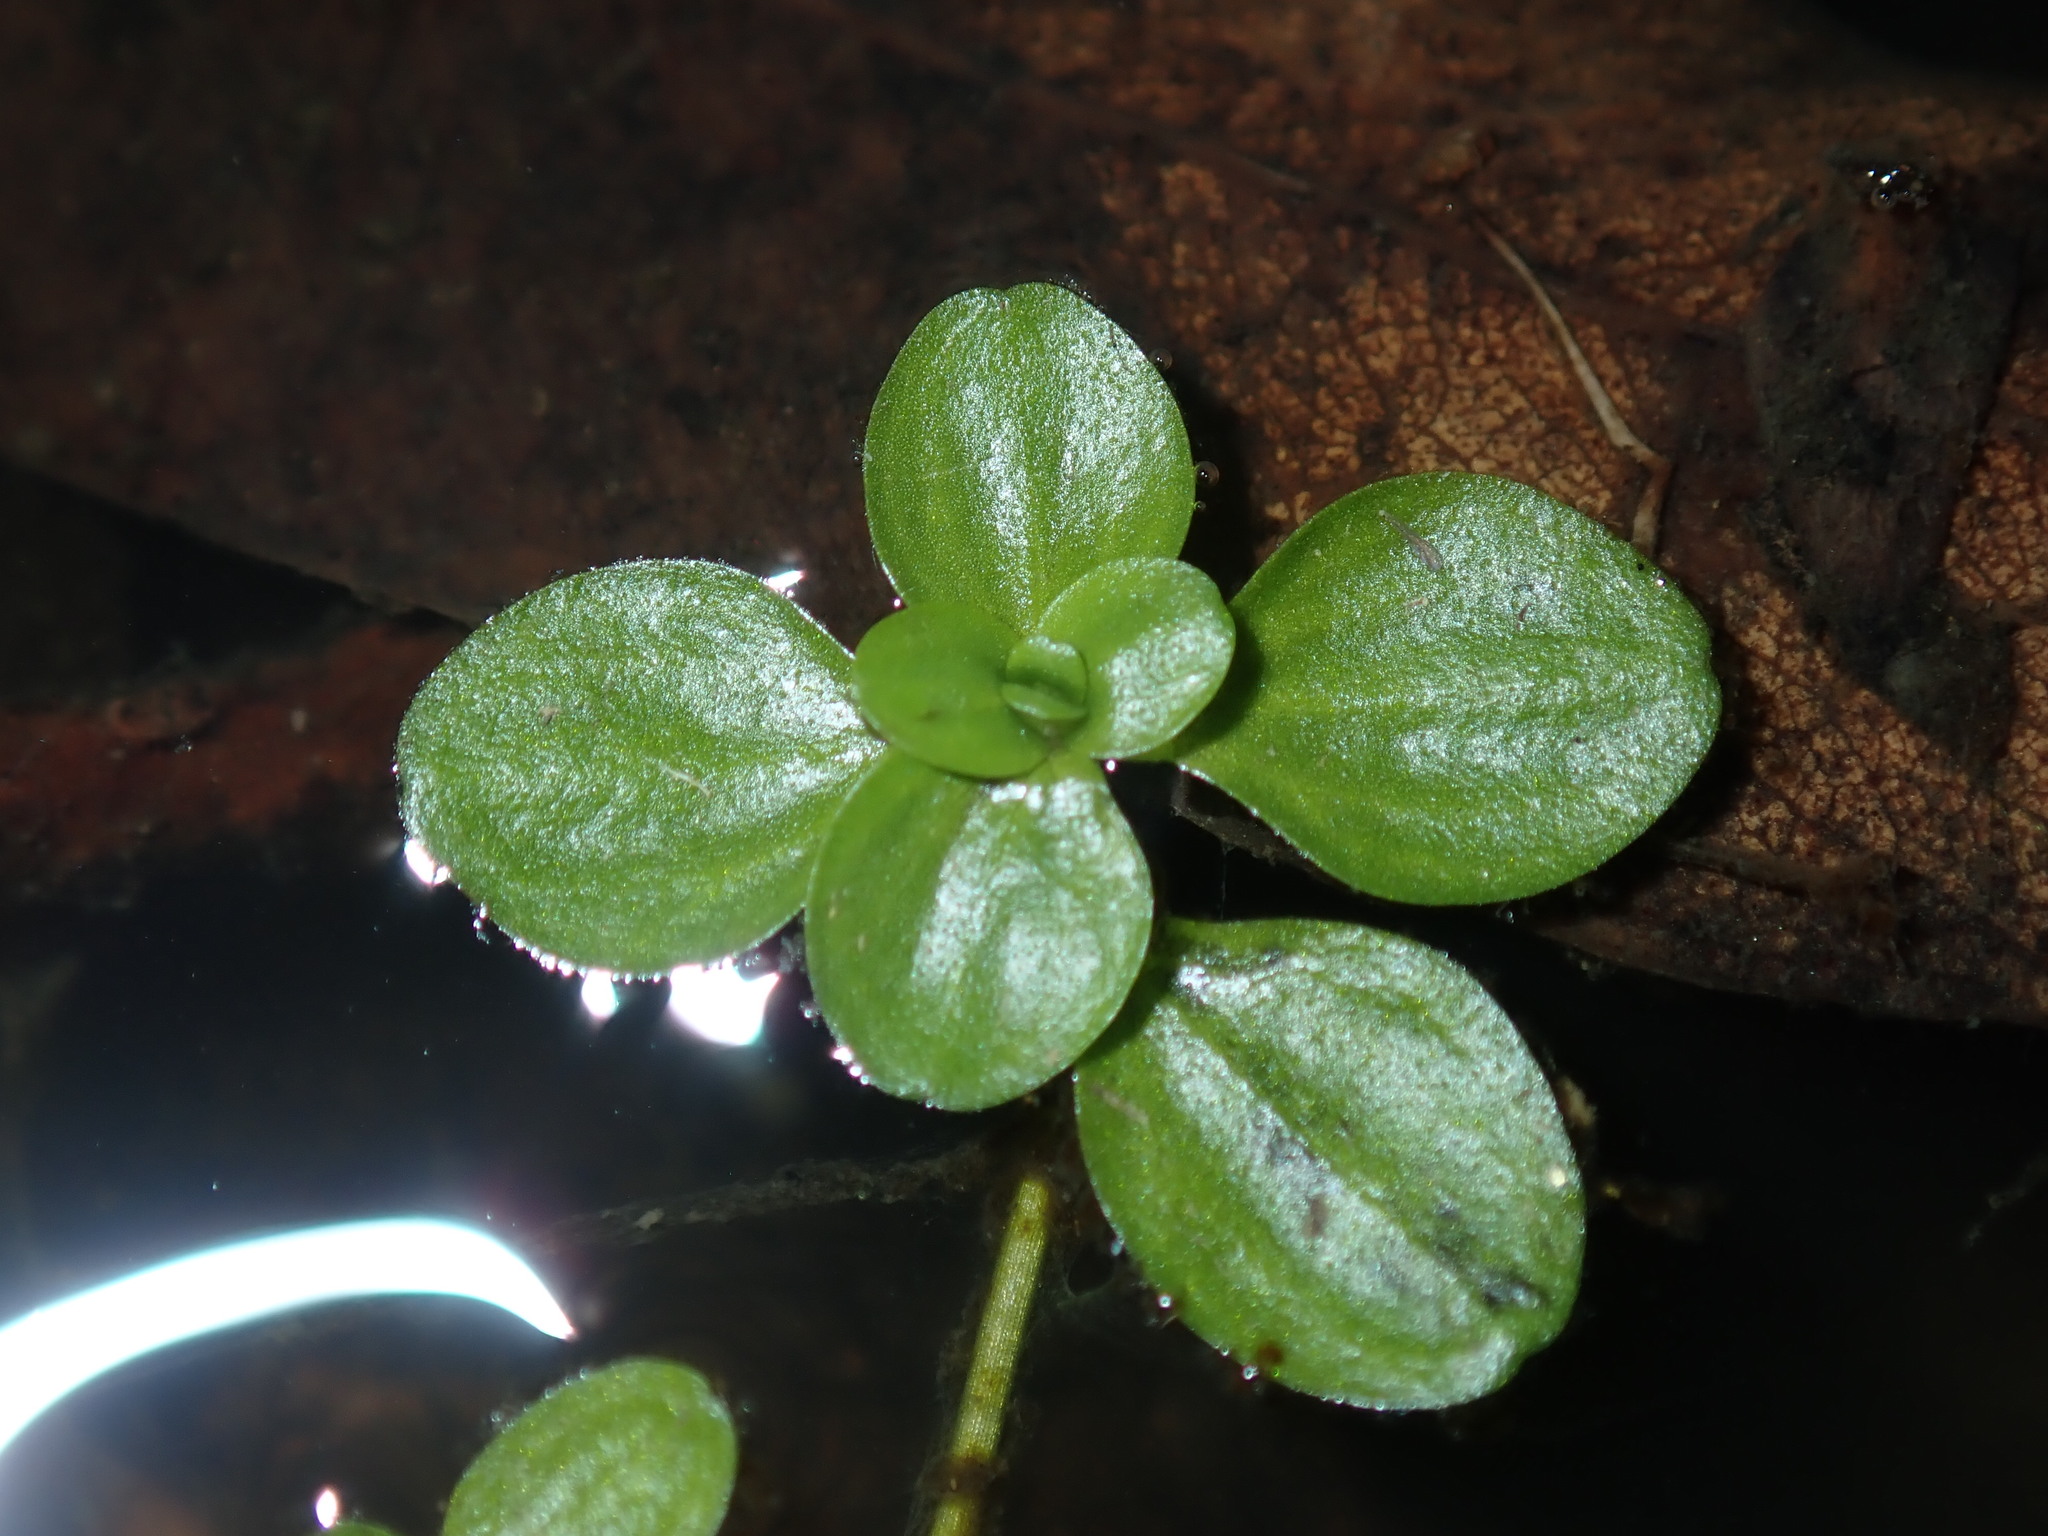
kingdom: Plantae
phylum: Tracheophyta
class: Magnoliopsida
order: Lamiales
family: Plantaginaceae
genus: Callitriche
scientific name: Callitriche stagnalis
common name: Common water-starwort
